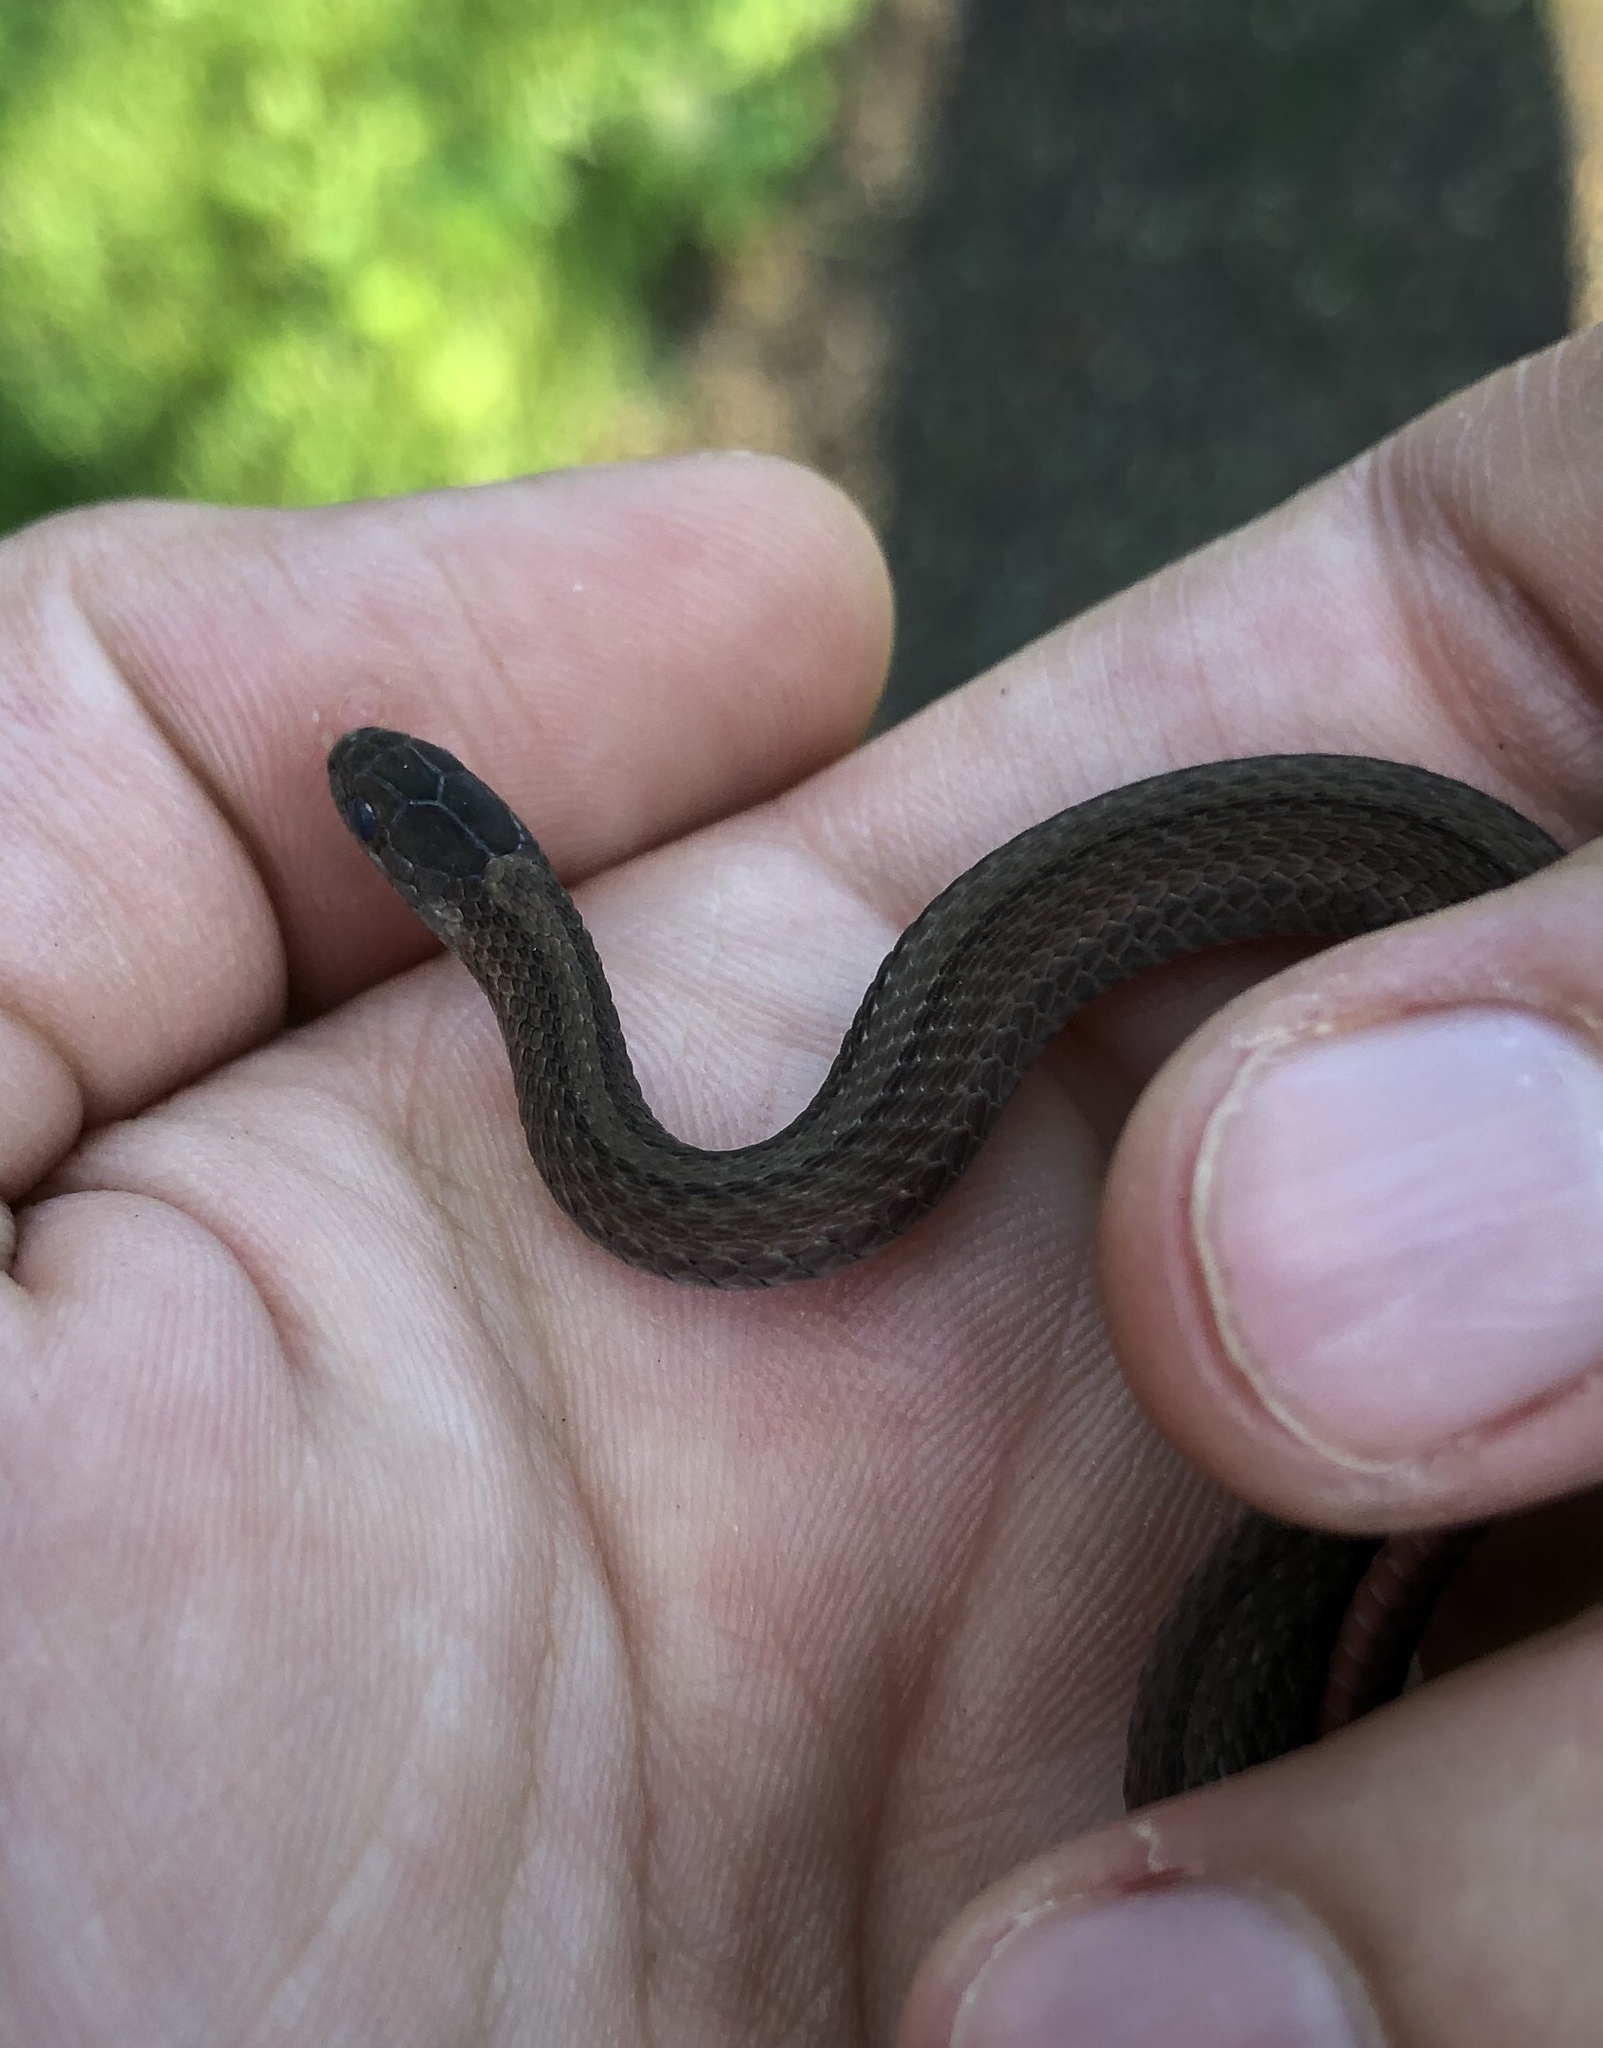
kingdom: Animalia
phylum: Chordata
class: Squamata
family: Colubridae
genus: Storeria
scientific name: Storeria occipitomaculata
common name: Redbelly snake
